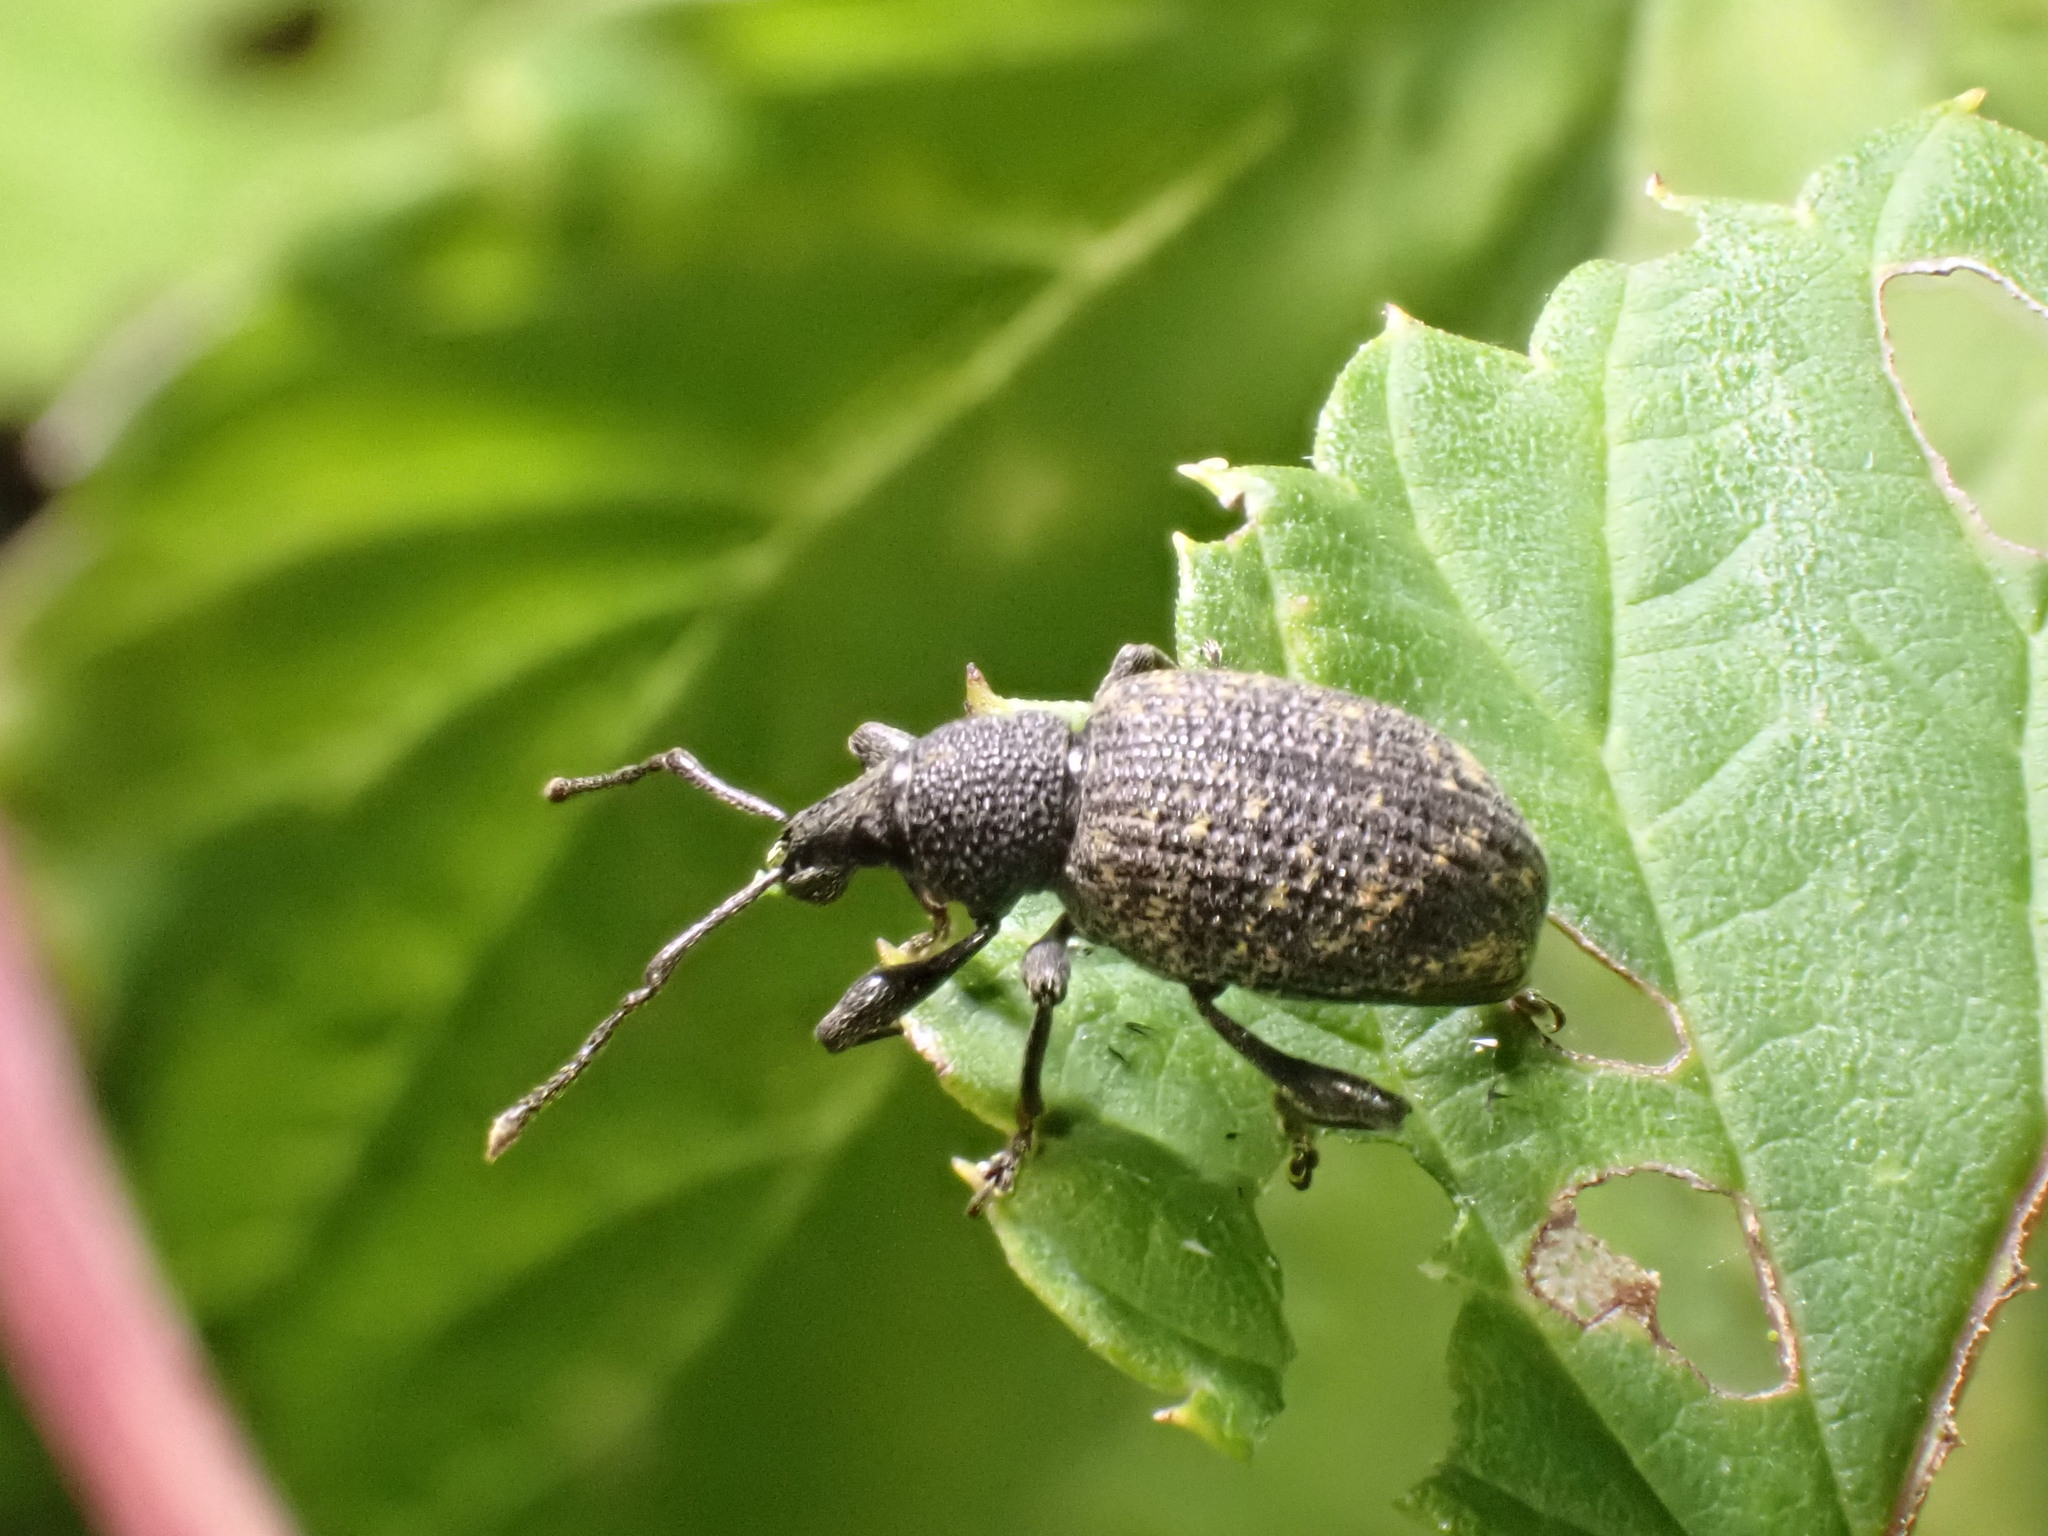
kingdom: Animalia
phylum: Arthropoda
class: Insecta
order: Coleoptera
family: Curculionidae
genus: Otiorhynchus
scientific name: Otiorhynchus sulcatus
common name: Black vine weevil
